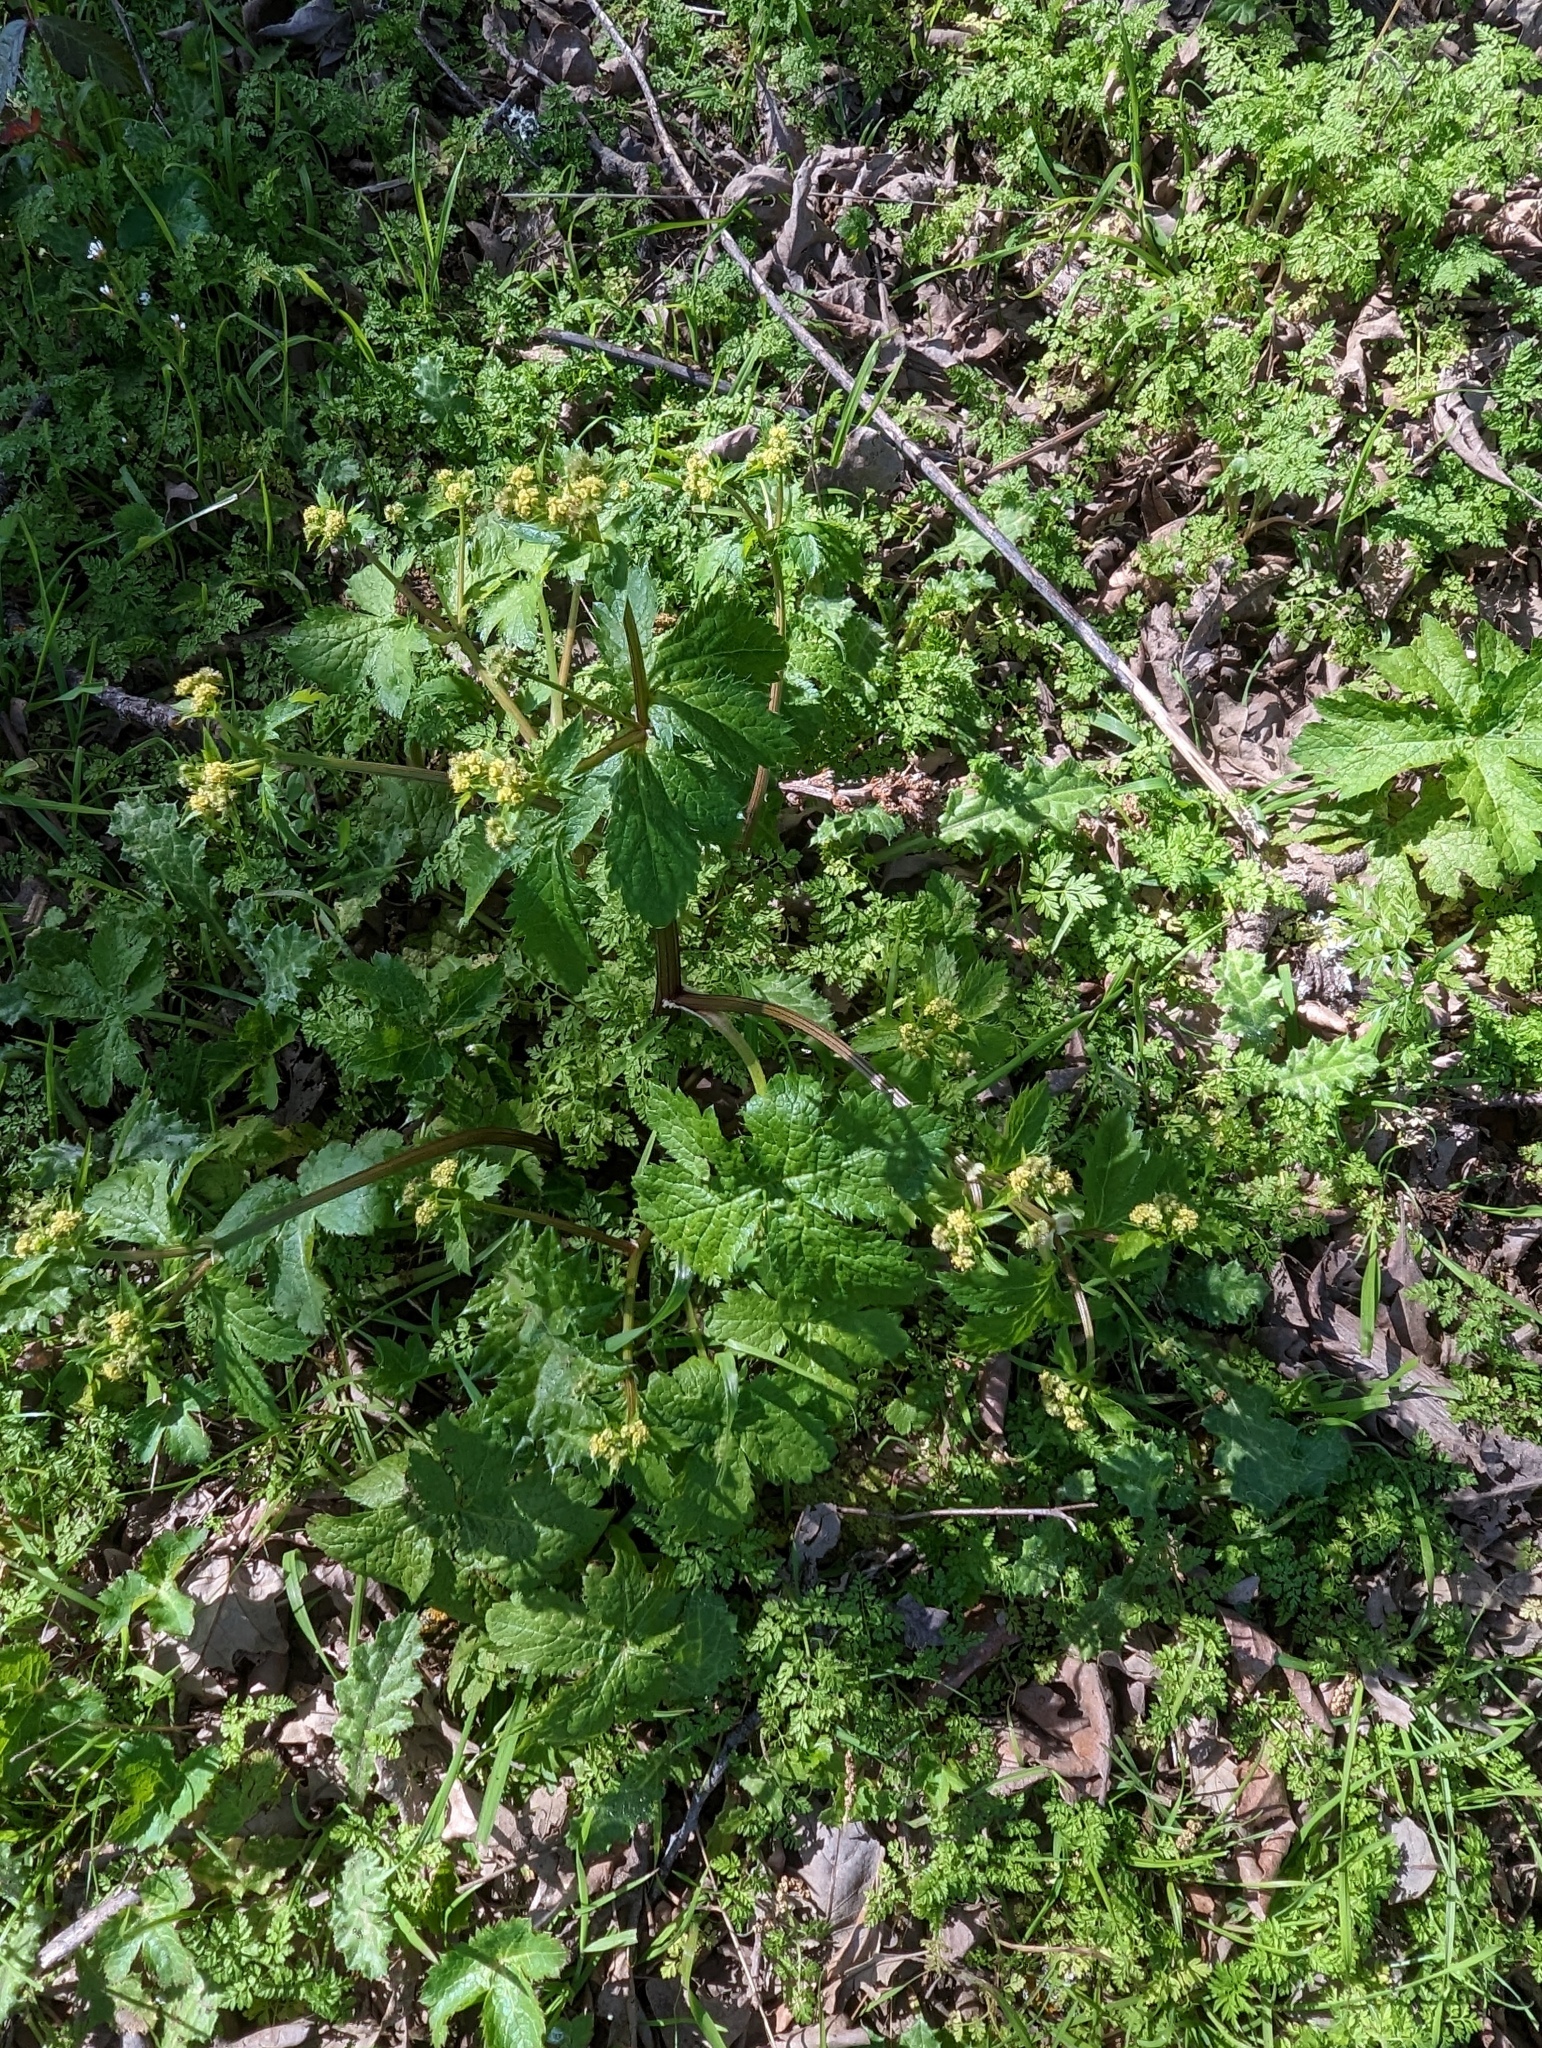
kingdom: Plantae
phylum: Tracheophyta
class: Magnoliopsida
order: Apiales
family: Apiaceae
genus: Sanicula
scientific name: Sanicula crassicaulis
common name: Western snakeroot
